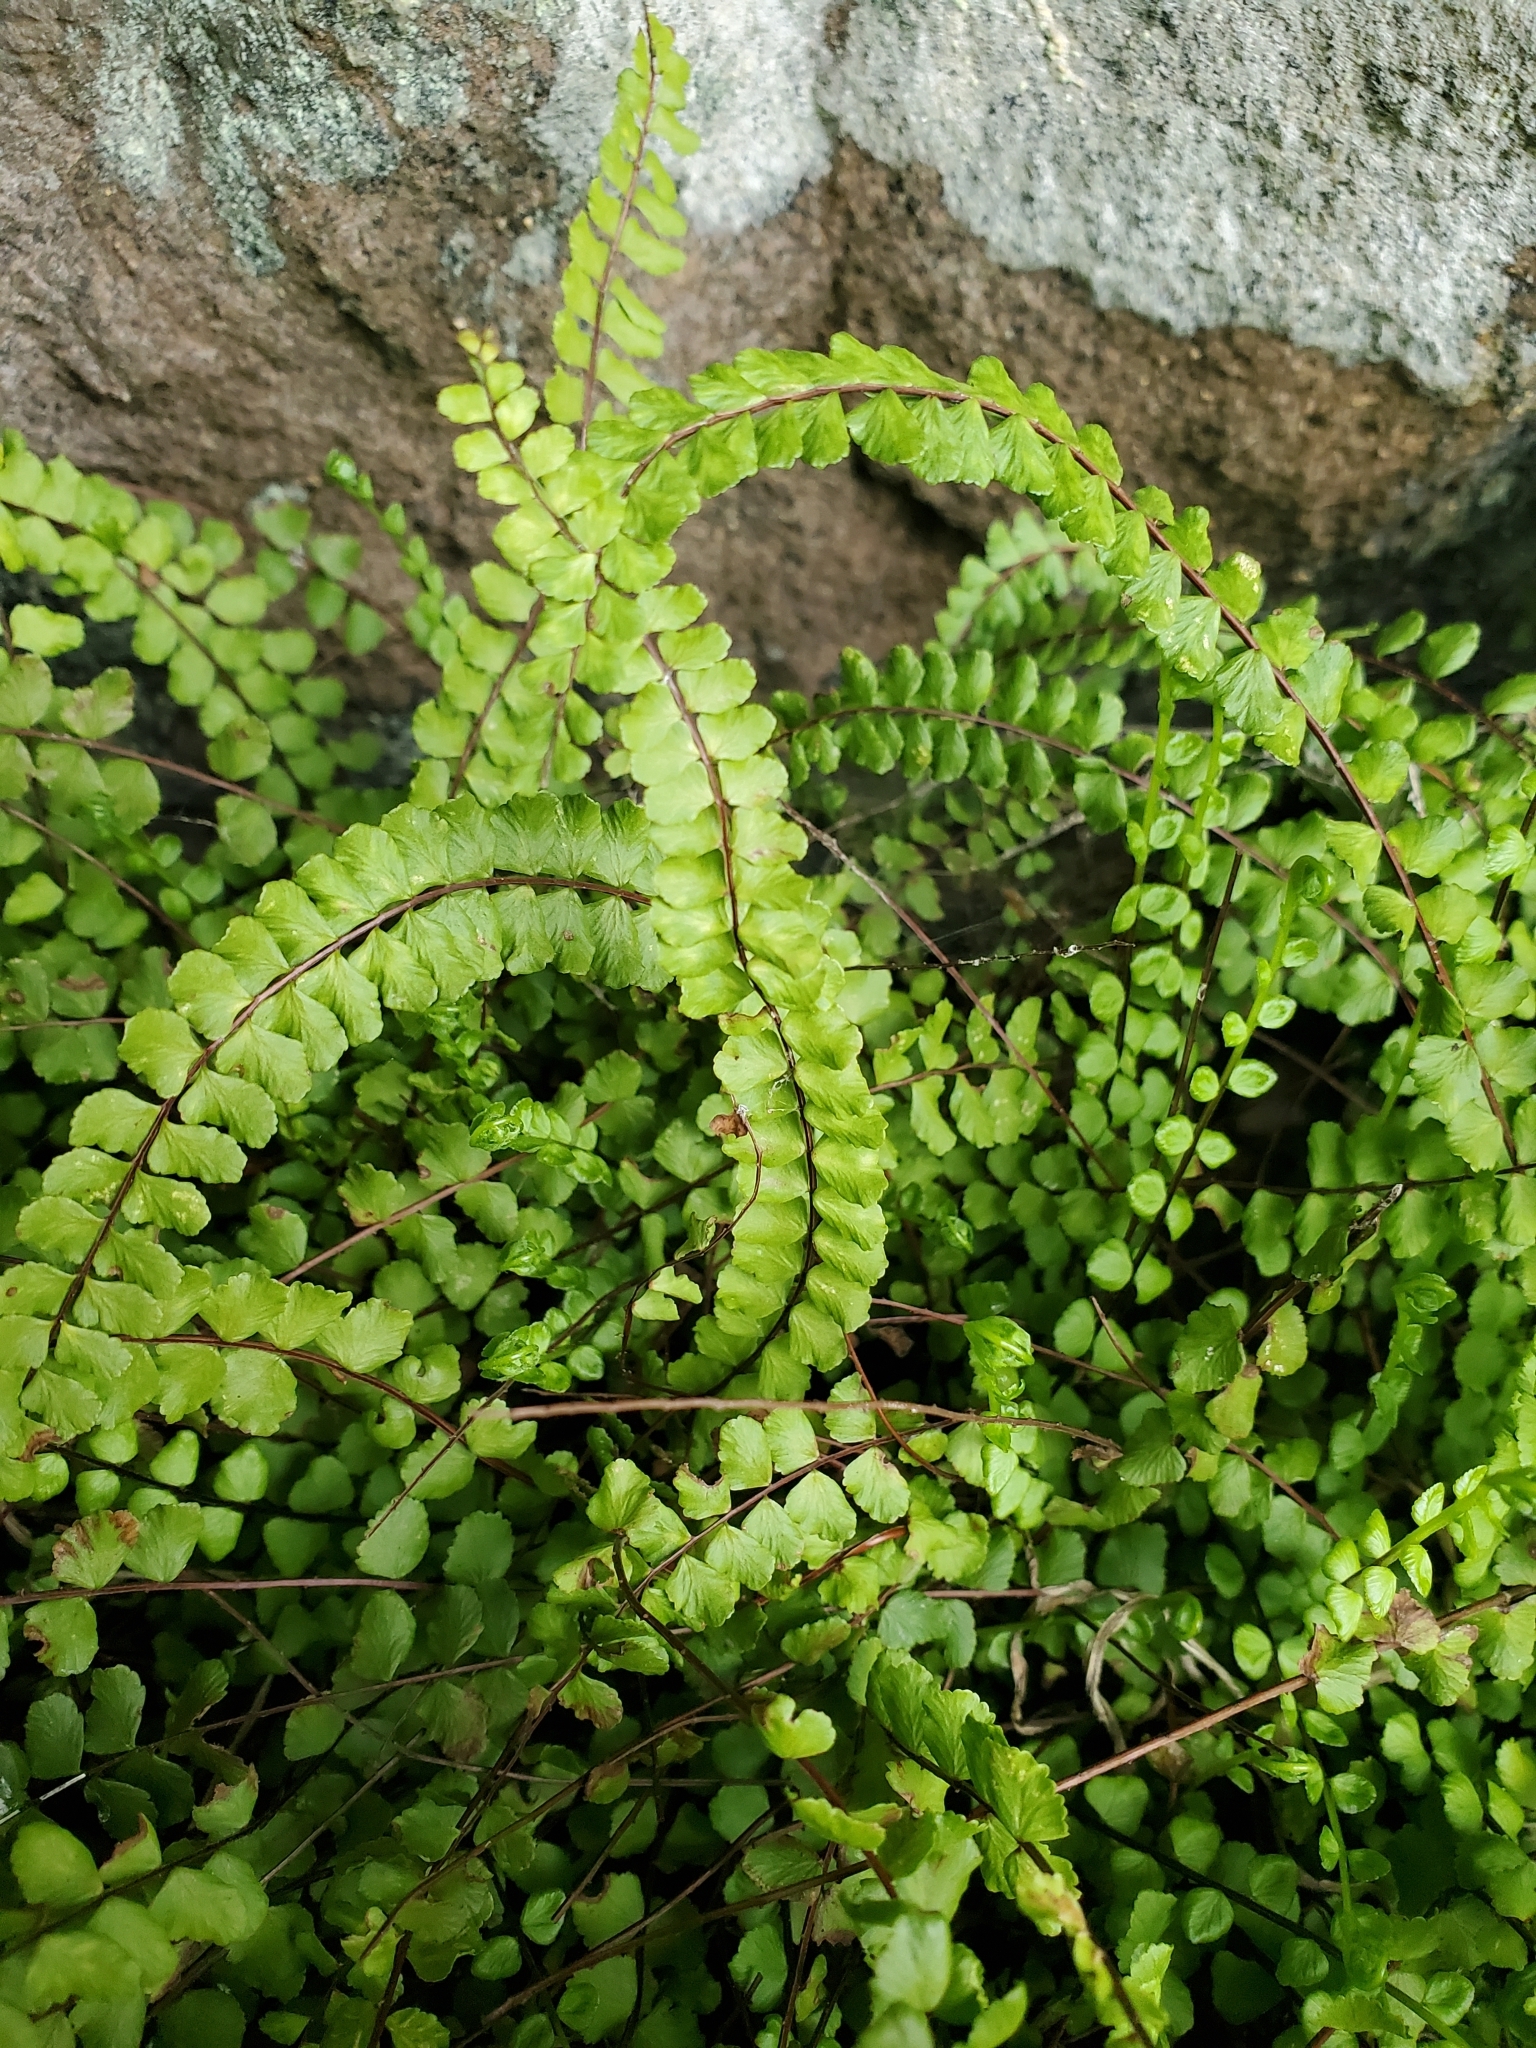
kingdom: Plantae
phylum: Tracheophyta
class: Polypodiopsida
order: Polypodiales
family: Aspleniaceae
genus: Asplenium
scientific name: Asplenium trichomanes
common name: Maidenhair spleenwort
